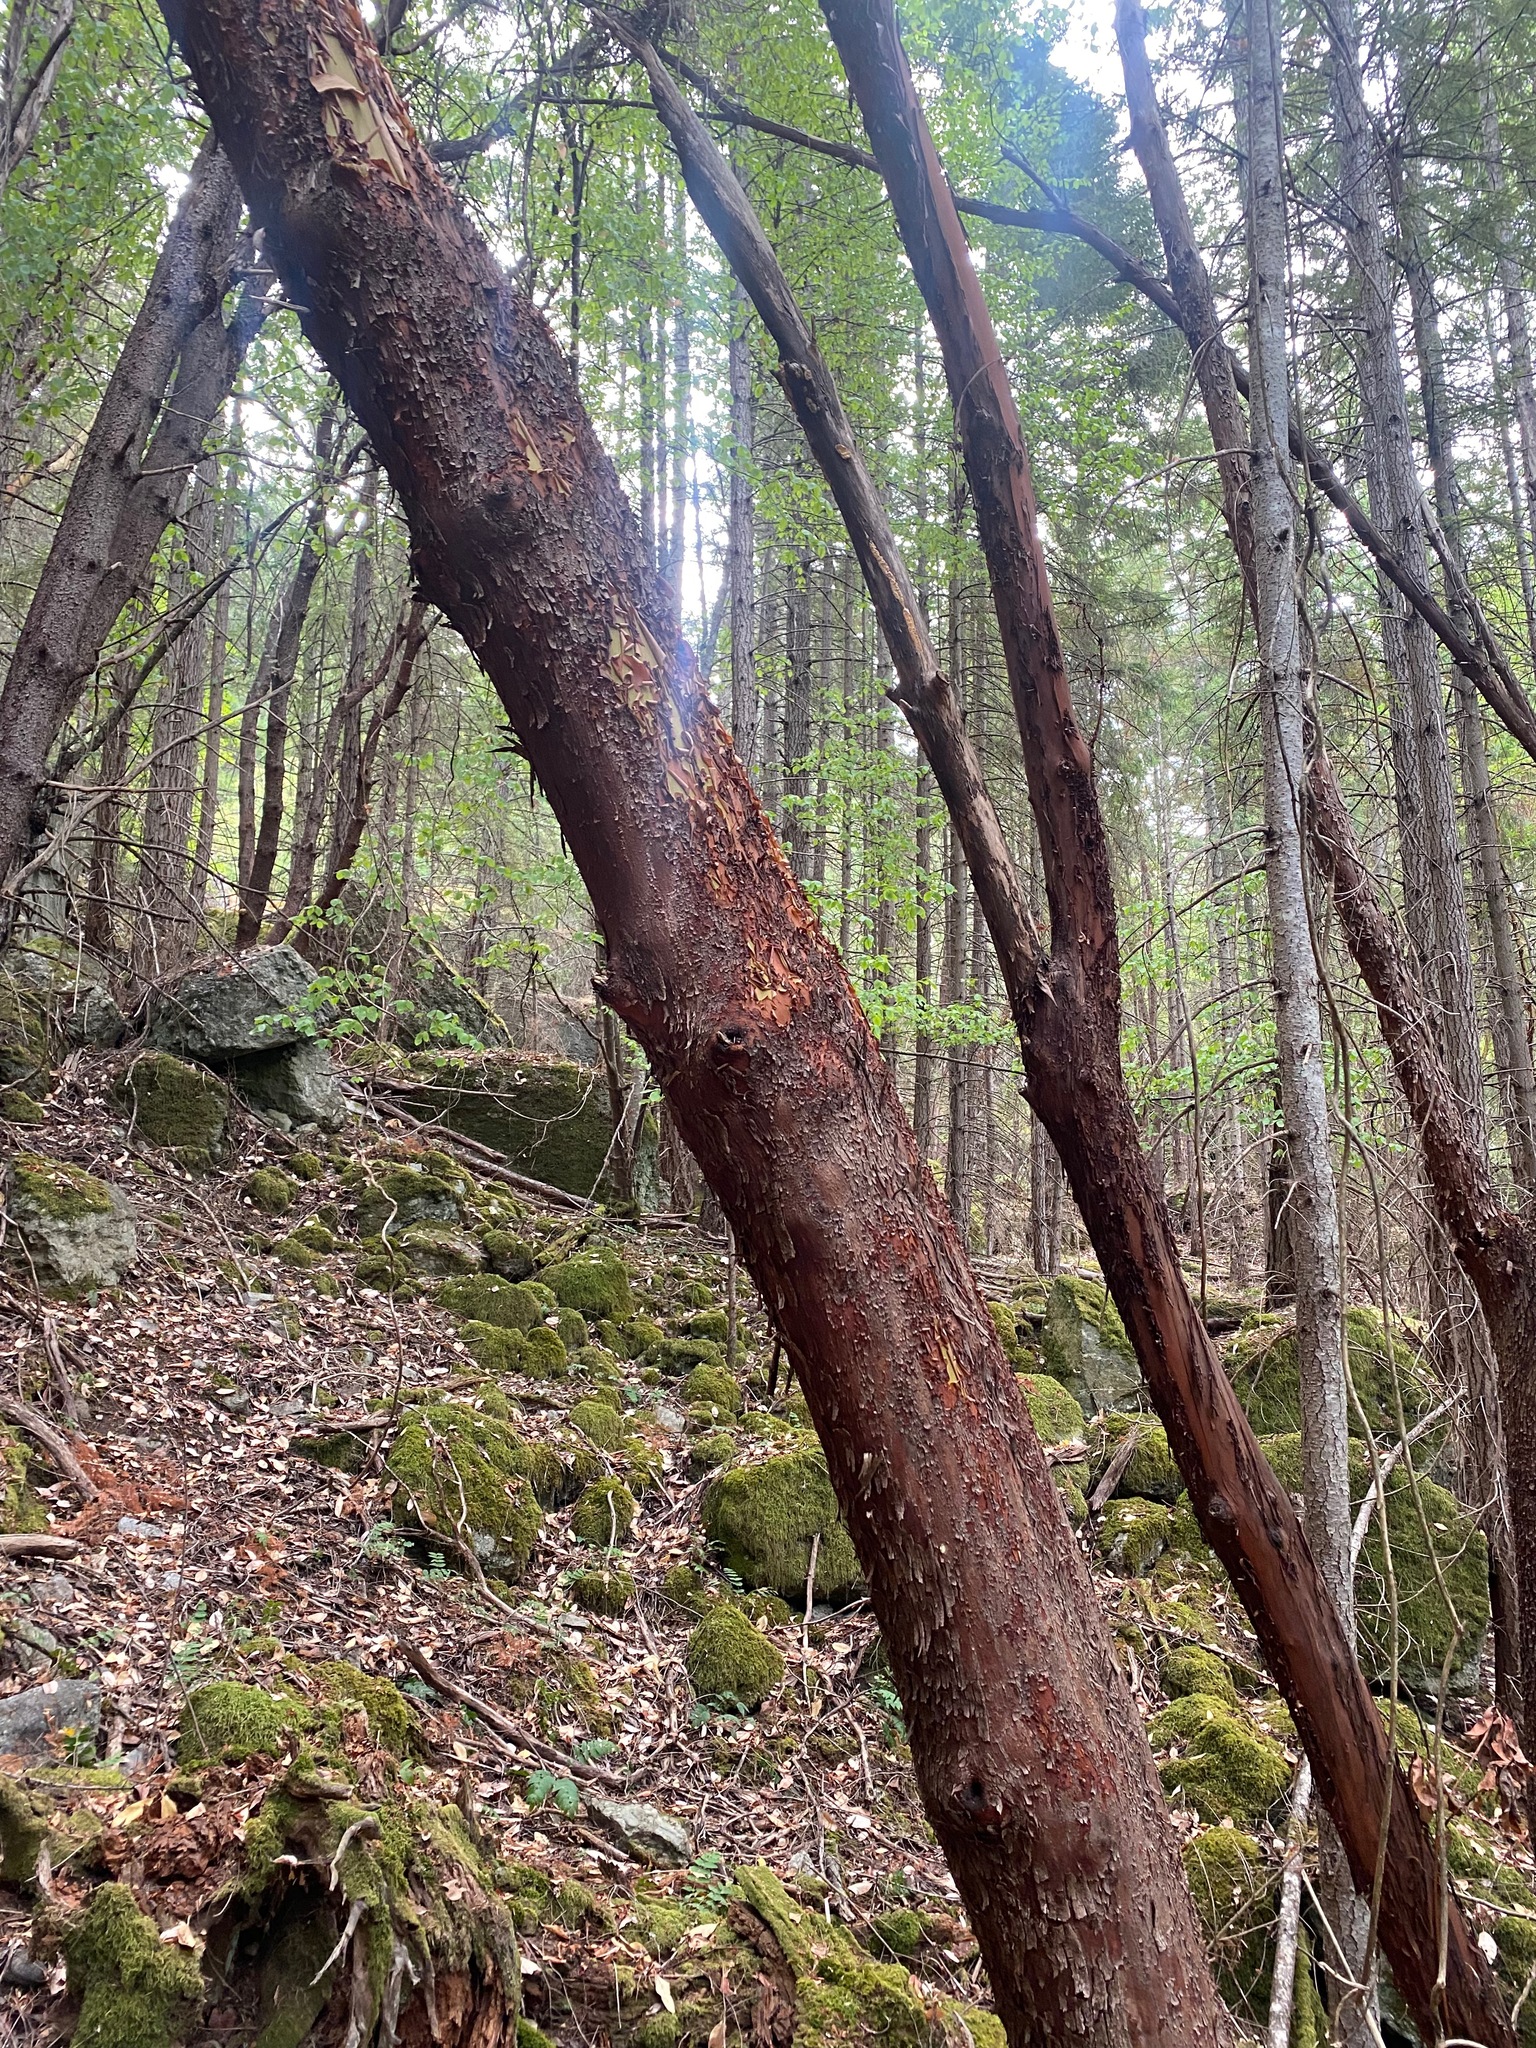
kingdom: Plantae
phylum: Tracheophyta
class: Magnoliopsida
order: Ericales
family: Ericaceae
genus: Arbutus
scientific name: Arbutus menziesii
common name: Pacific madrone
